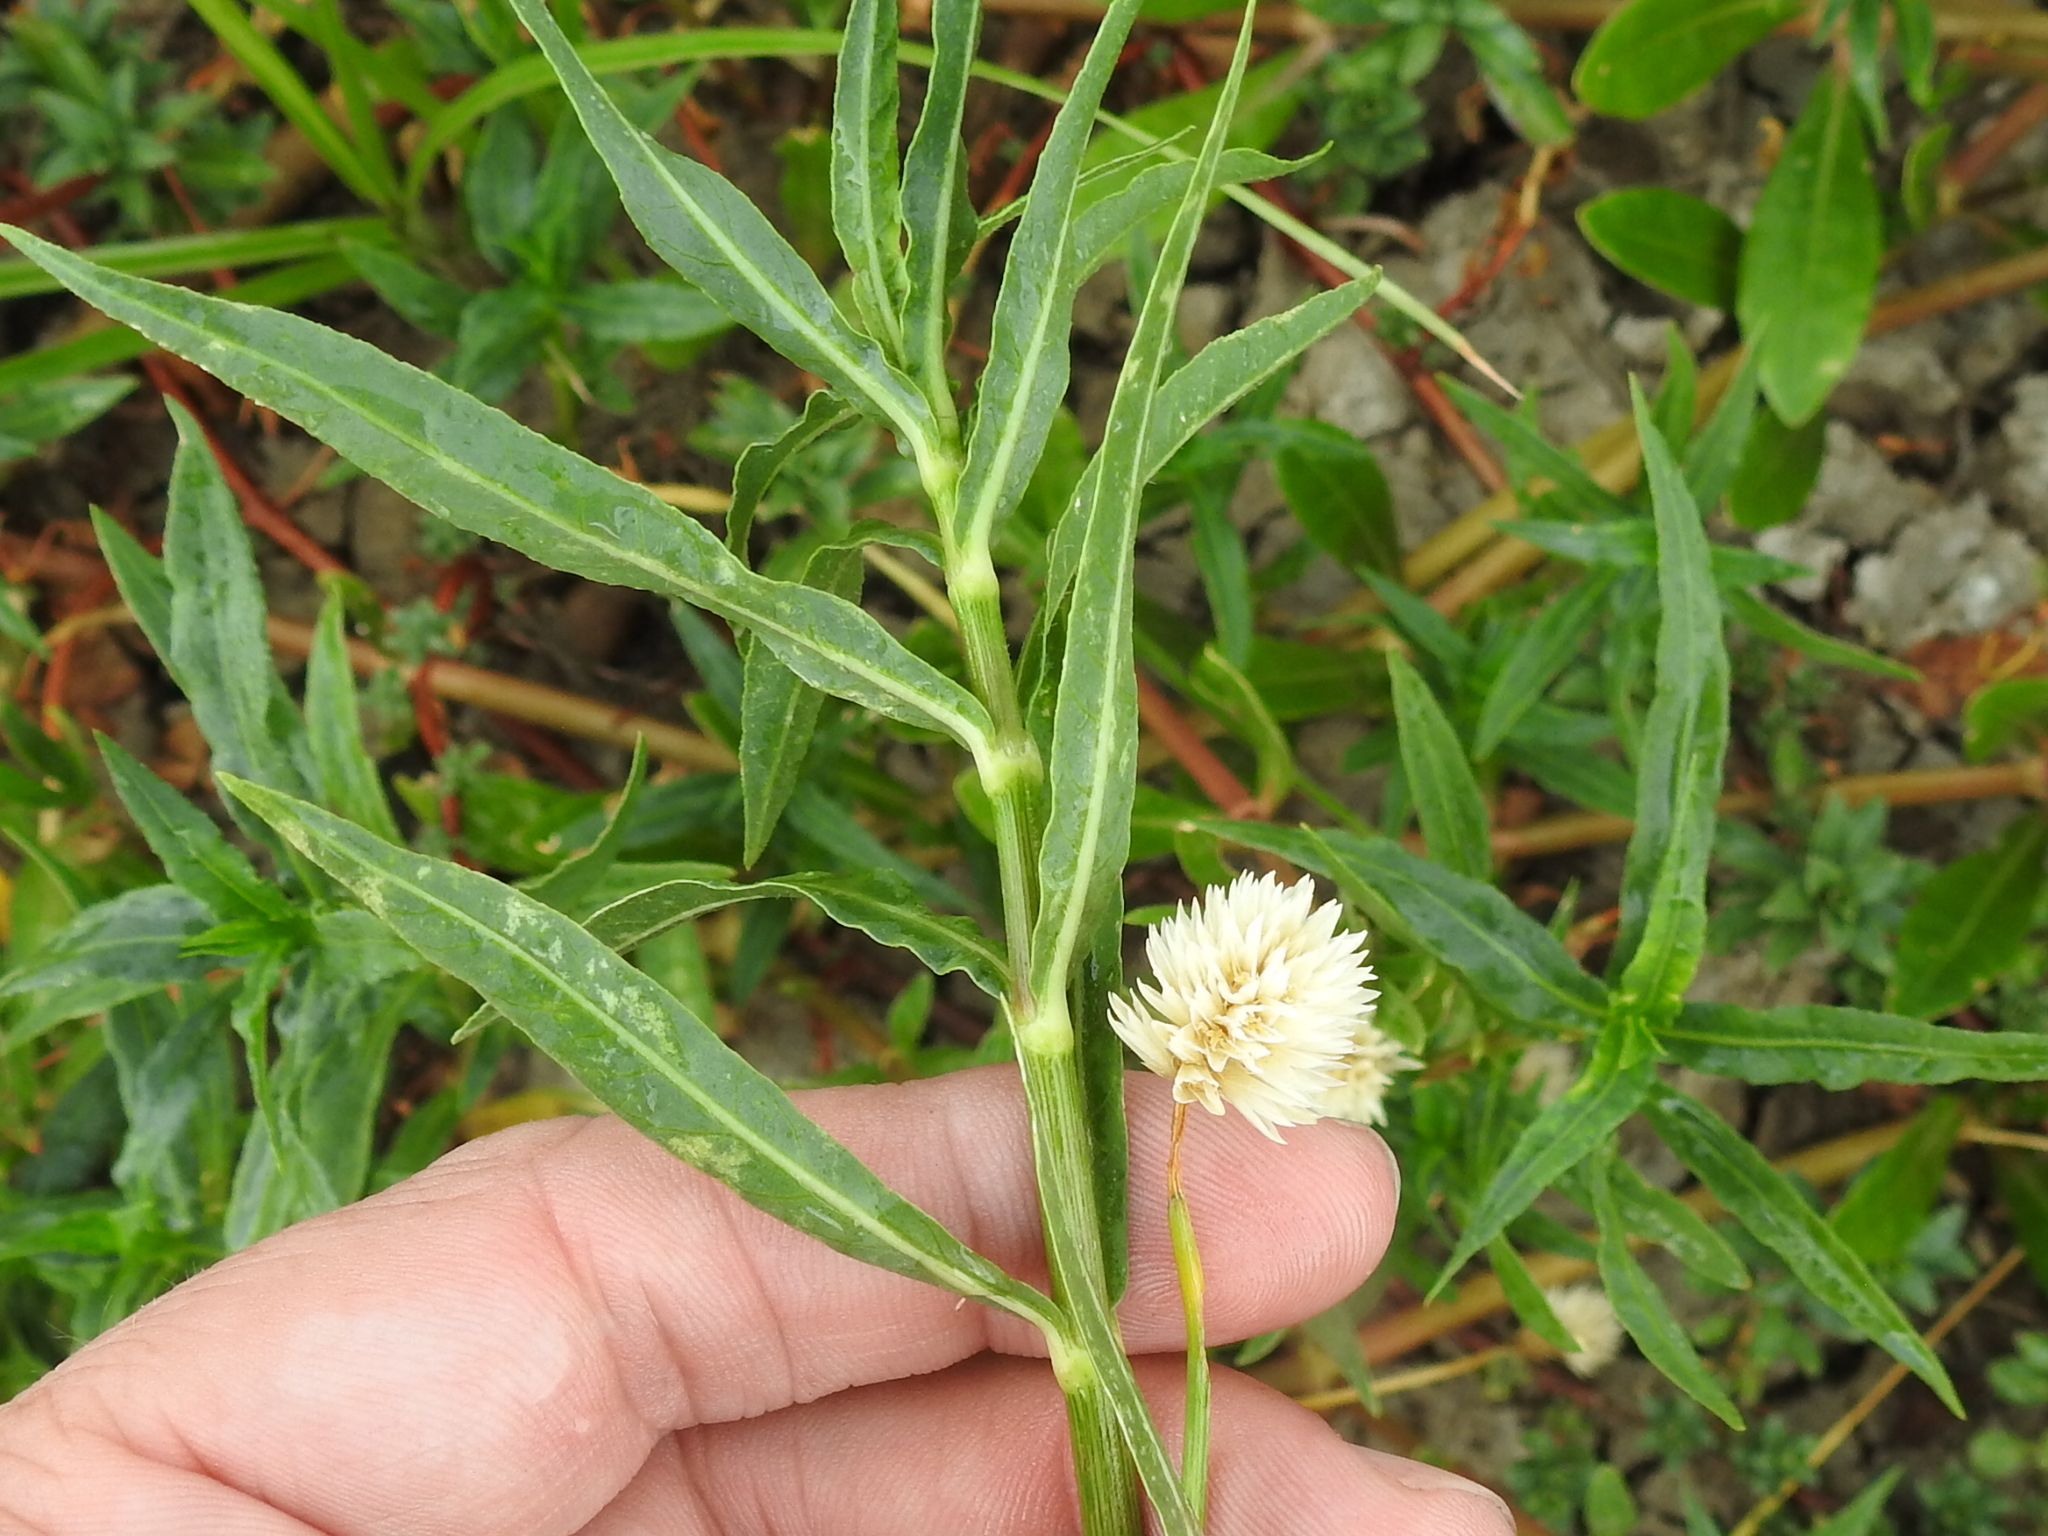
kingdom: Plantae
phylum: Tracheophyta
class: Magnoliopsida
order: Caryophyllales
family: Amaranthaceae
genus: Alternanthera
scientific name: Alternanthera philoxeroides
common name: Alligatorweed
